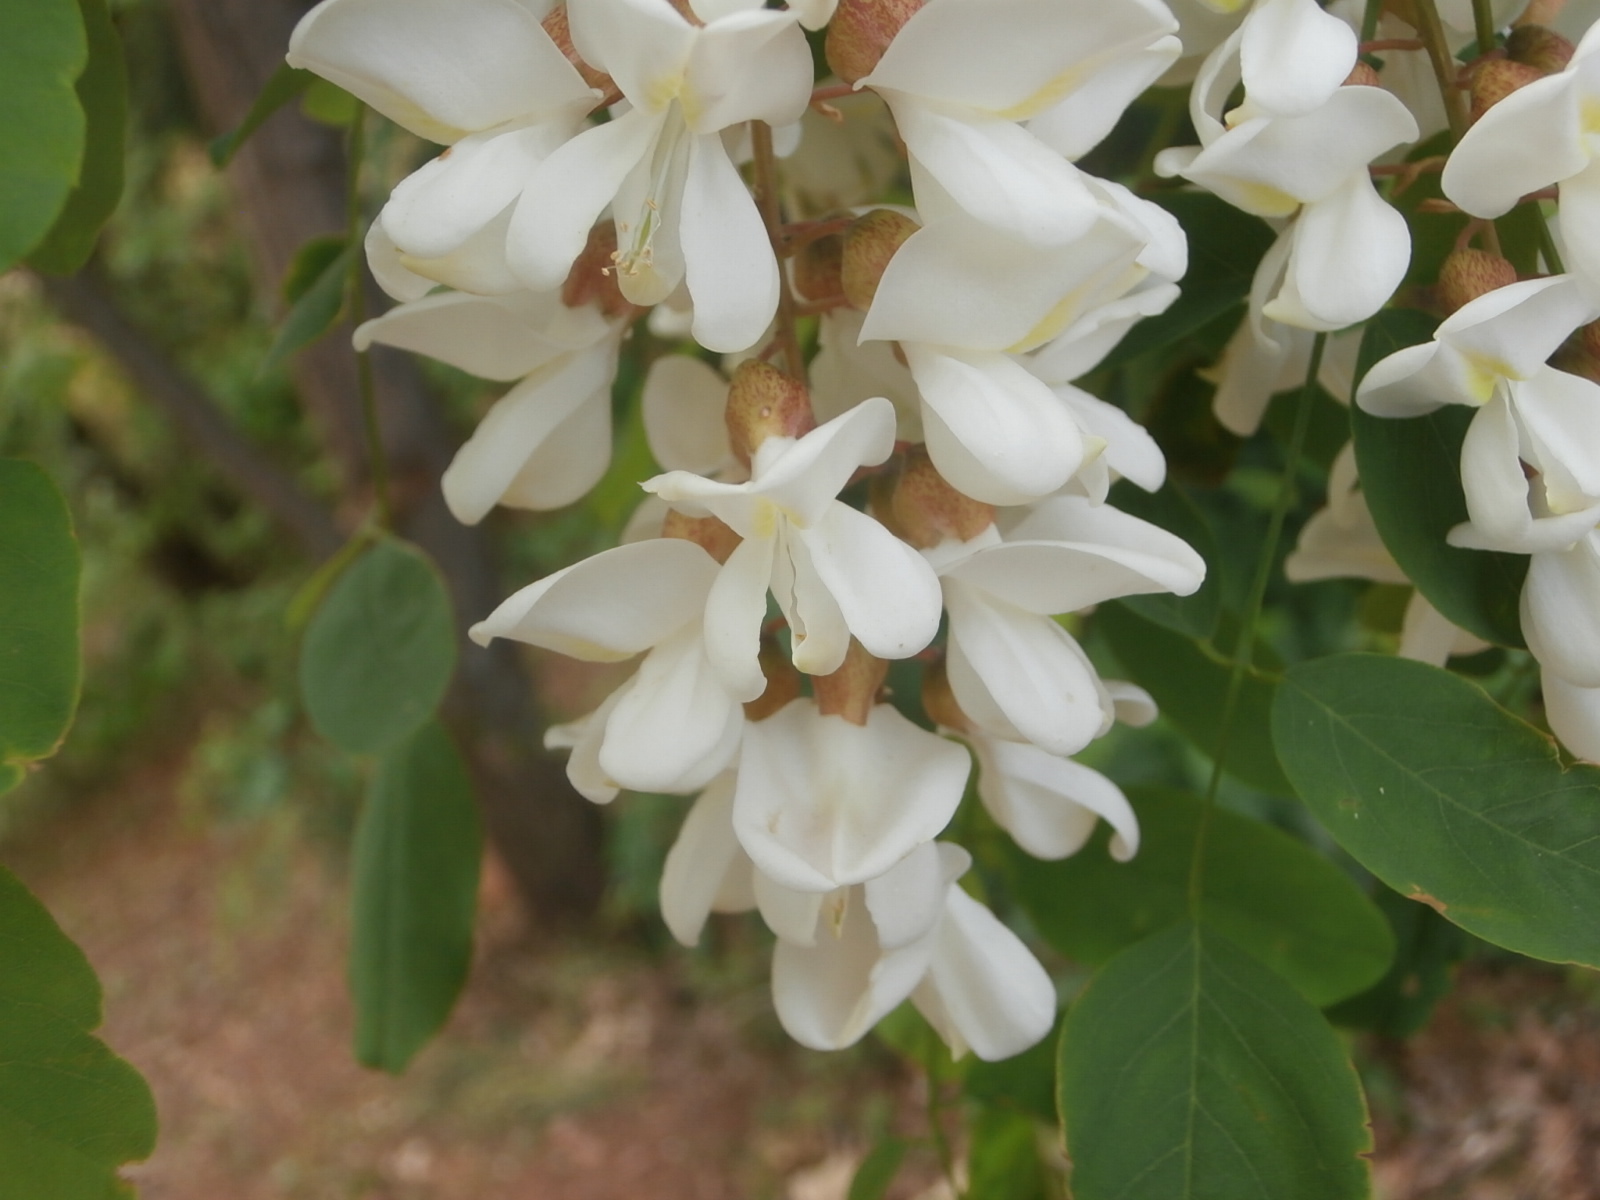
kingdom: Plantae
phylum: Tracheophyta
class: Magnoliopsida
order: Fabales
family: Fabaceae
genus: Robinia
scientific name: Robinia pseudoacacia
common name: Black locust
